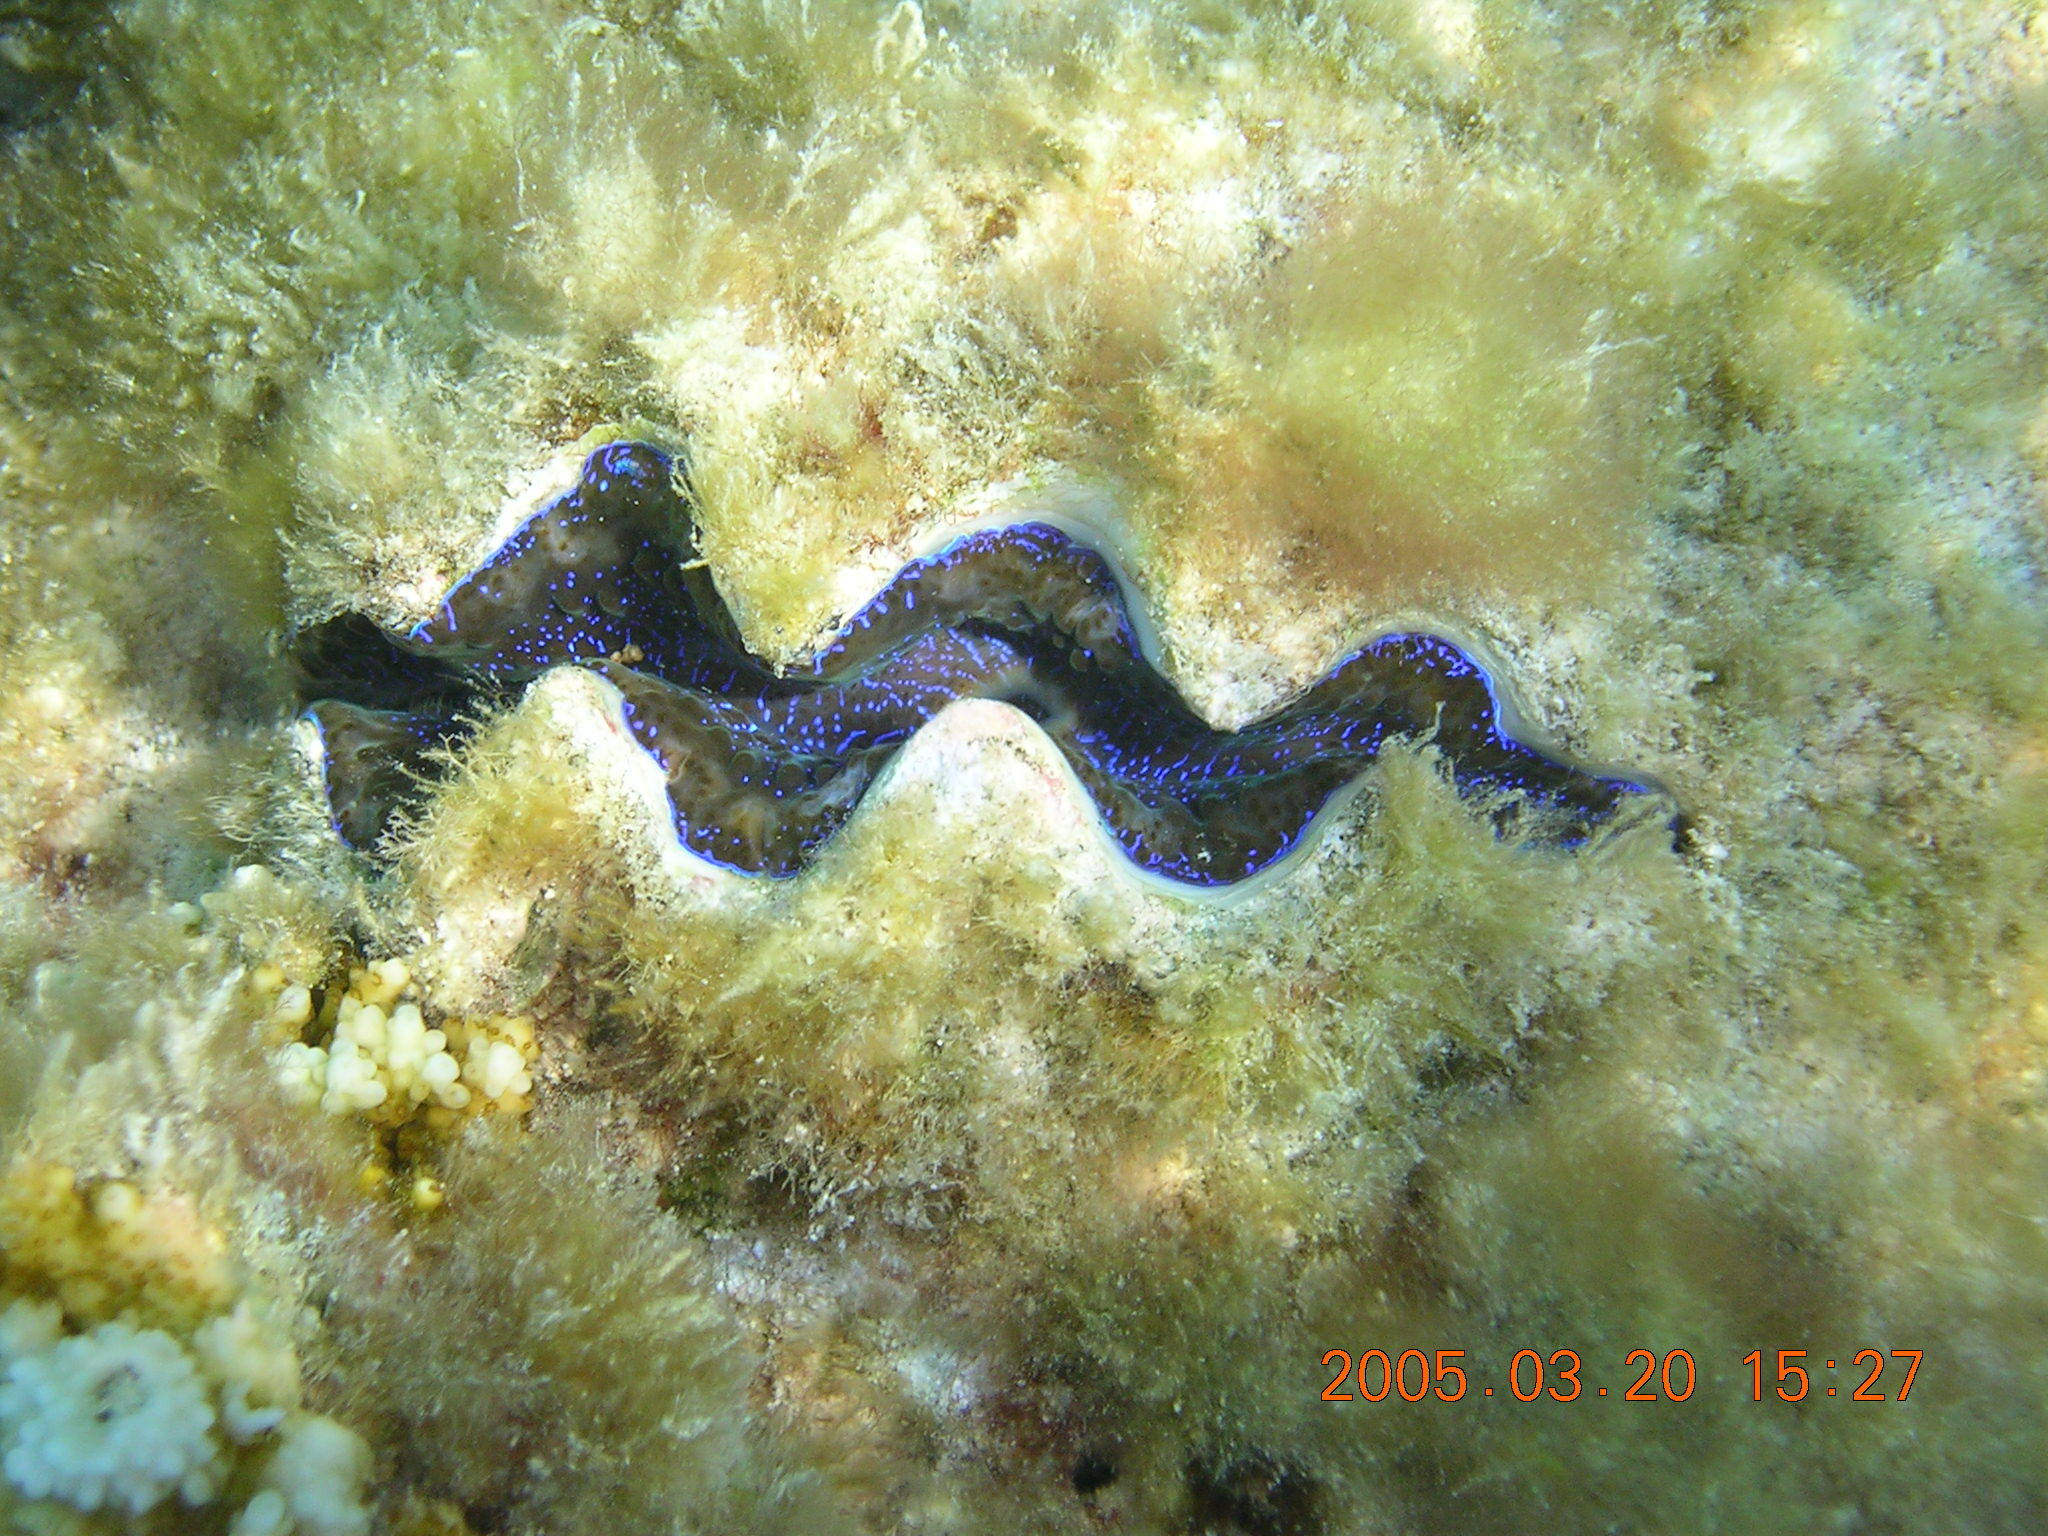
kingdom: Animalia
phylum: Mollusca
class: Bivalvia
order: Cardiida
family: Cardiidae
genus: Tridacna
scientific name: Tridacna maxima
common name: Small giant clam
